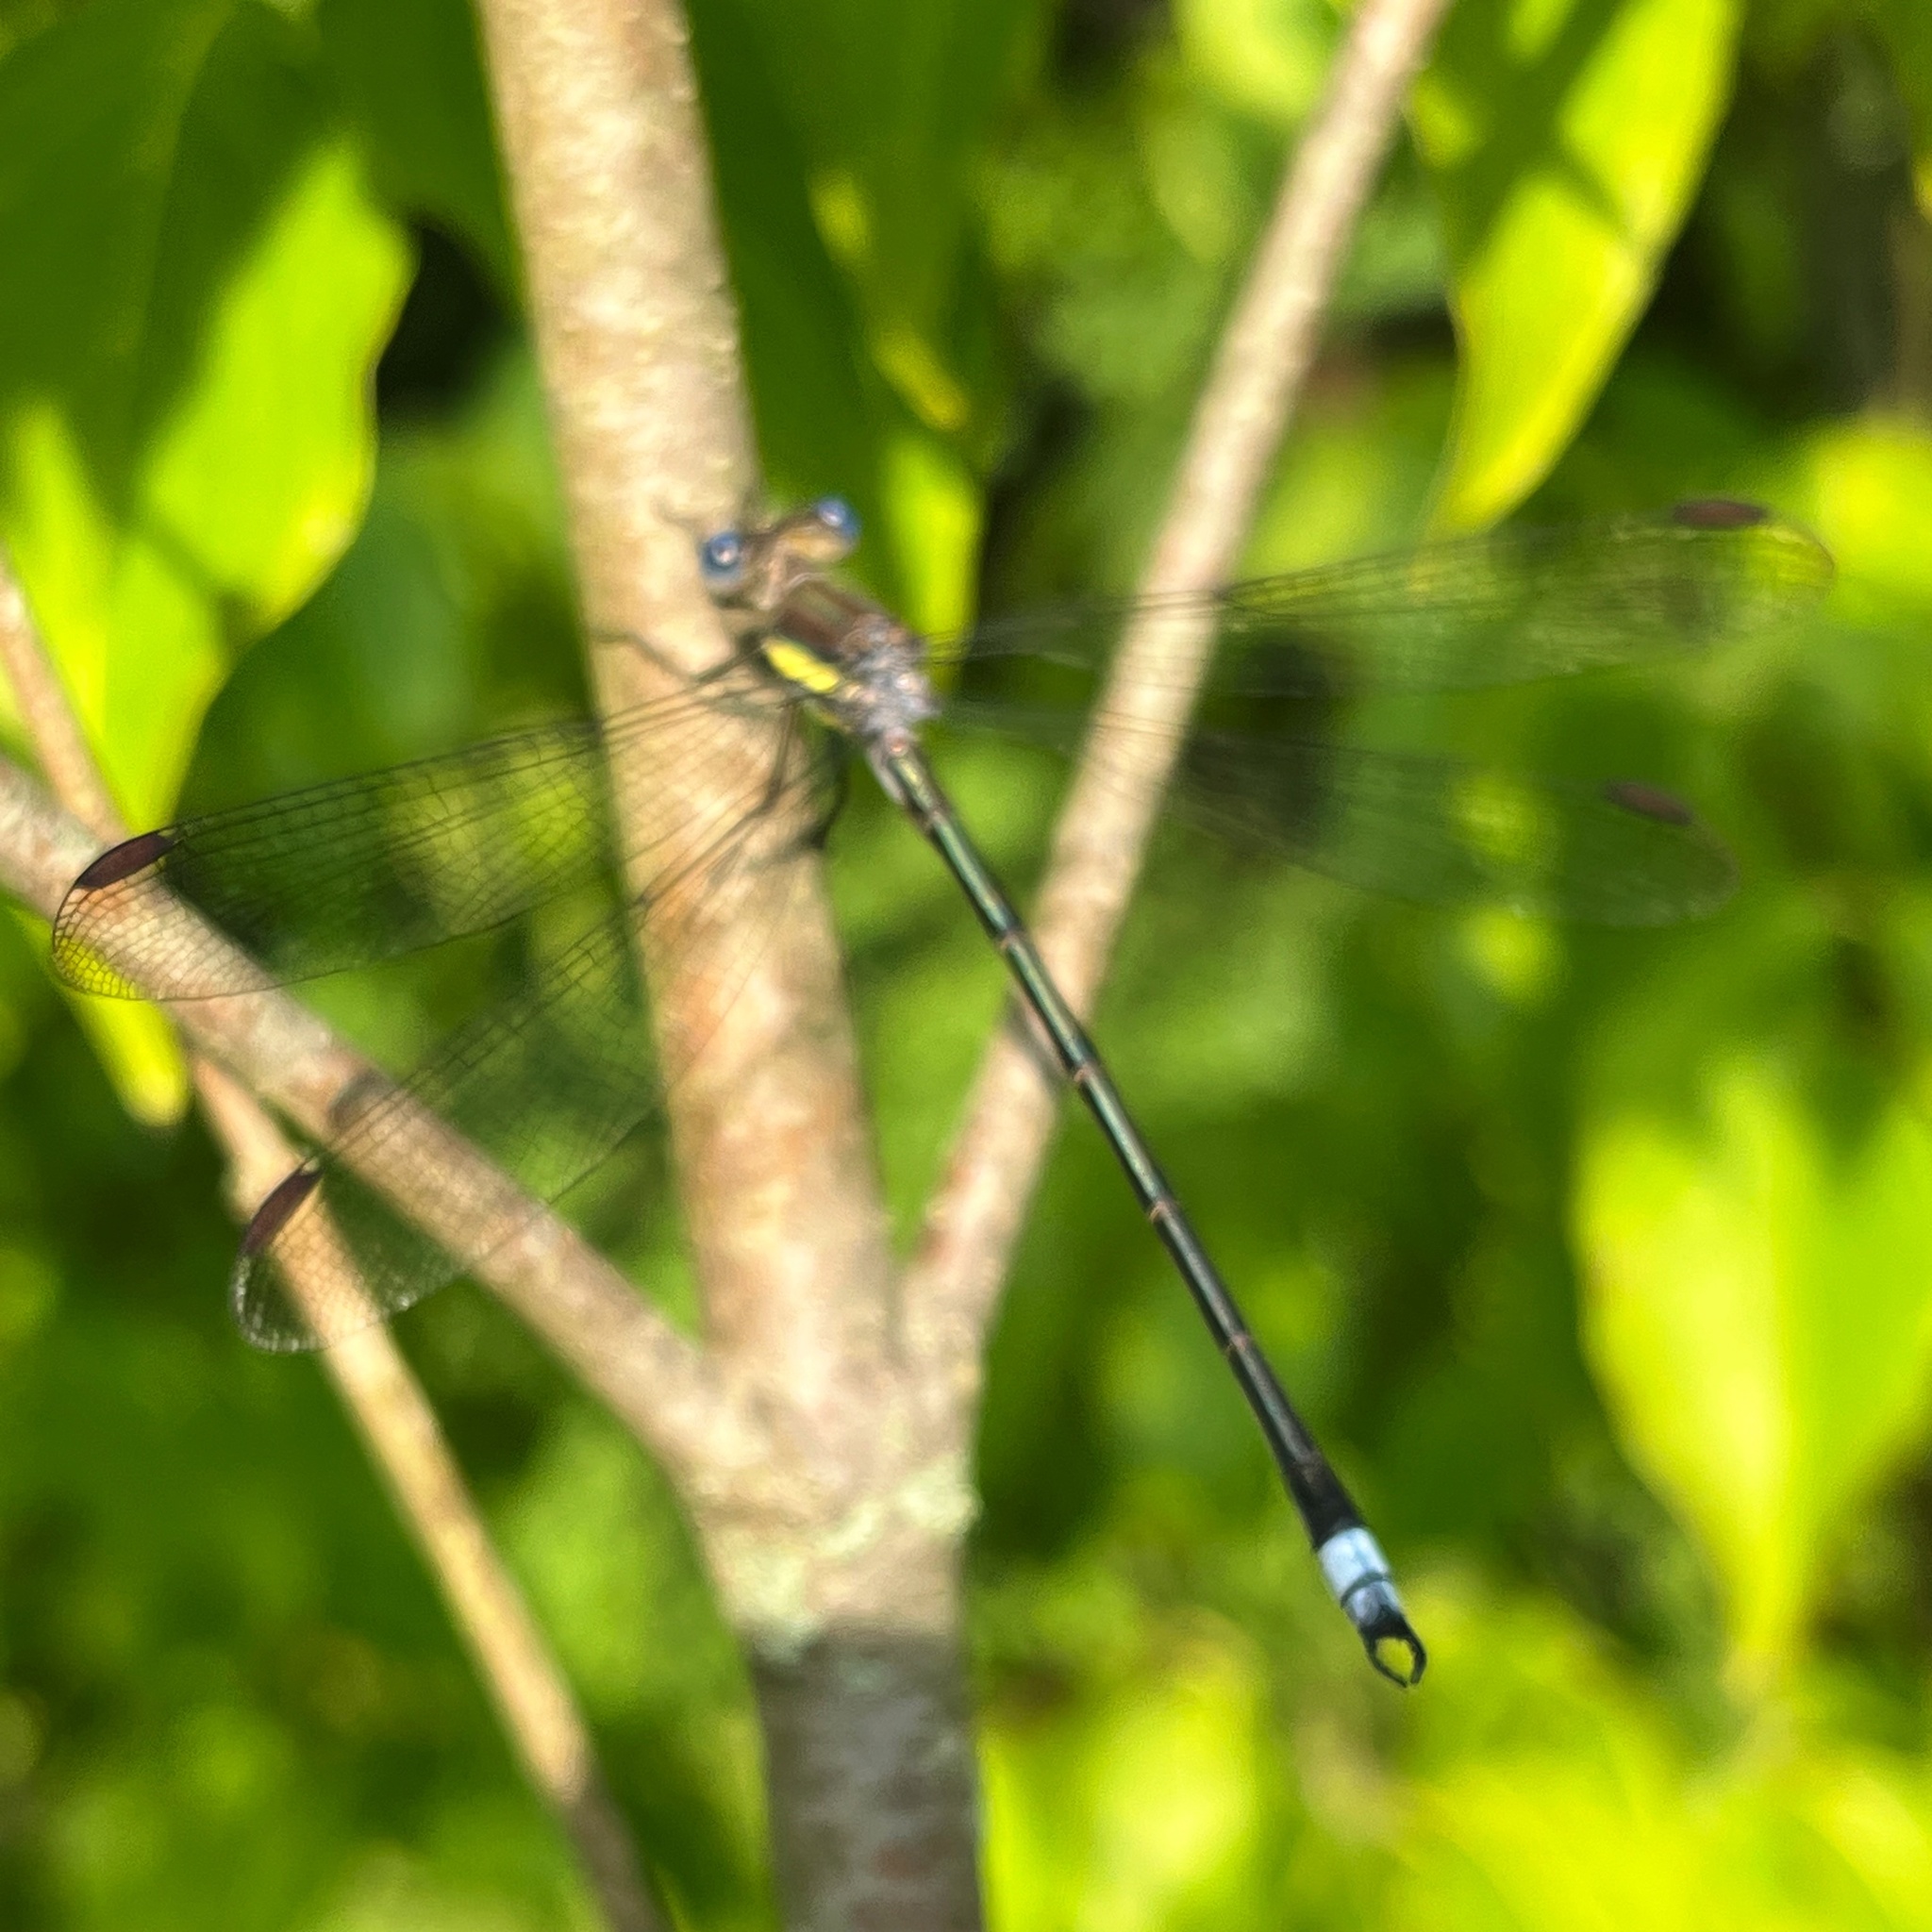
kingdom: Animalia
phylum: Arthropoda
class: Insecta
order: Odonata
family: Lestidae
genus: Archilestes
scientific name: Archilestes grandis
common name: Great spreadwing
